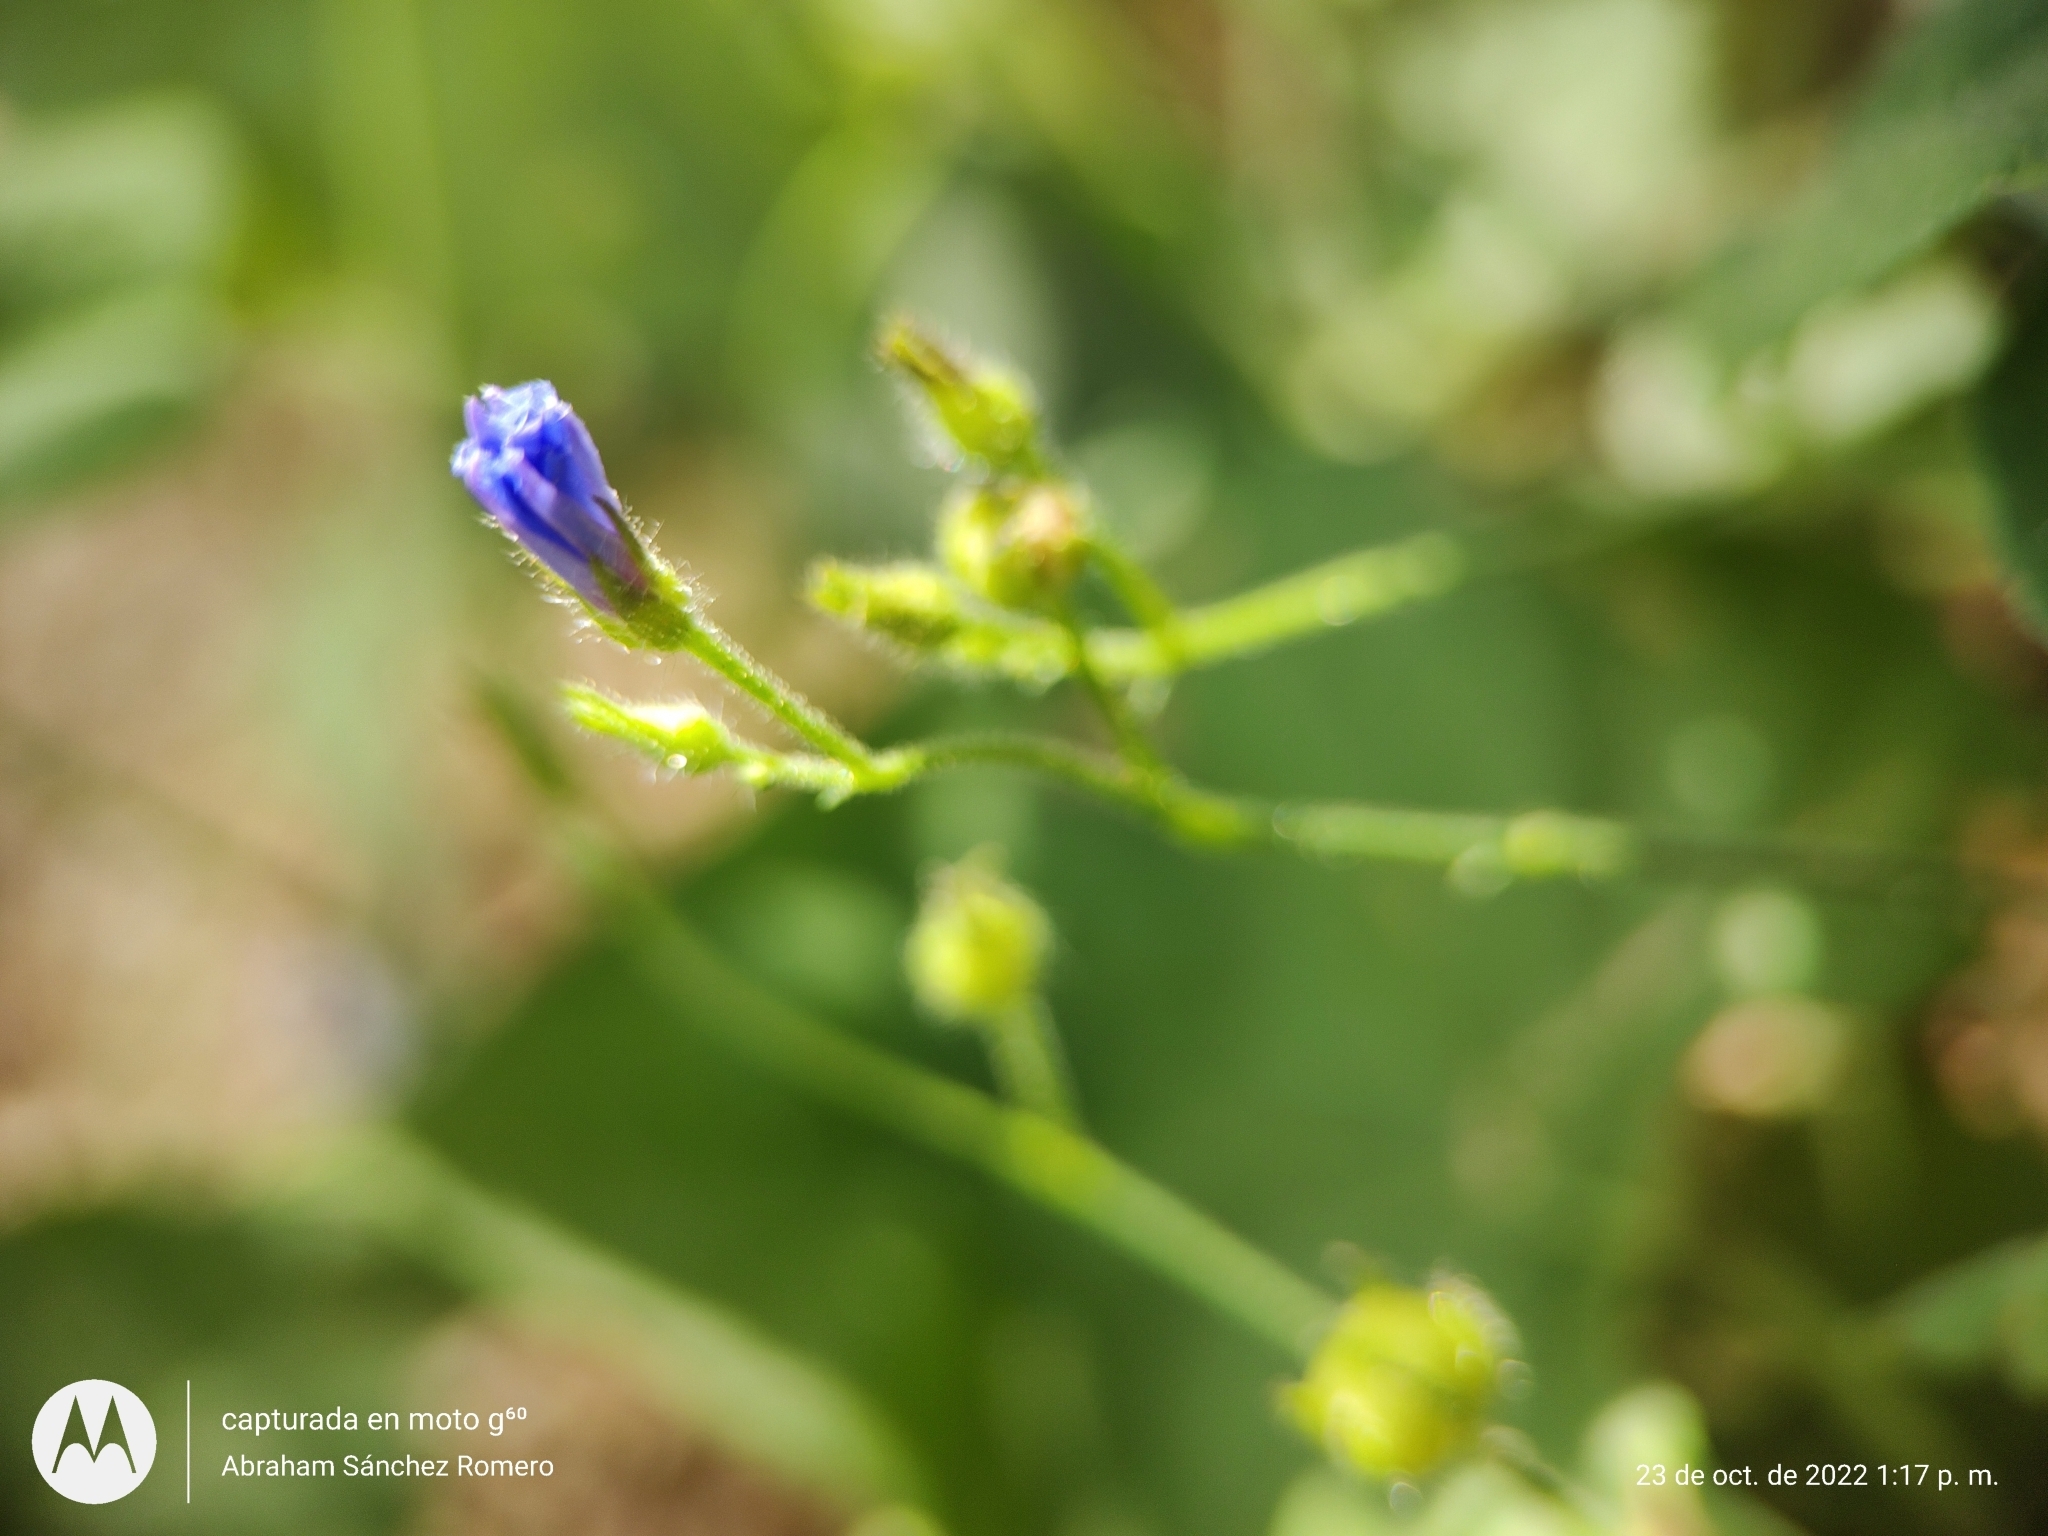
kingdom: Plantae
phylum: Tracheophyta
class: Magnoliopsida
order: Solanales
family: Convolvulaceae
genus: Jacquemontia
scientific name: Jacquemontia evolvuloides
